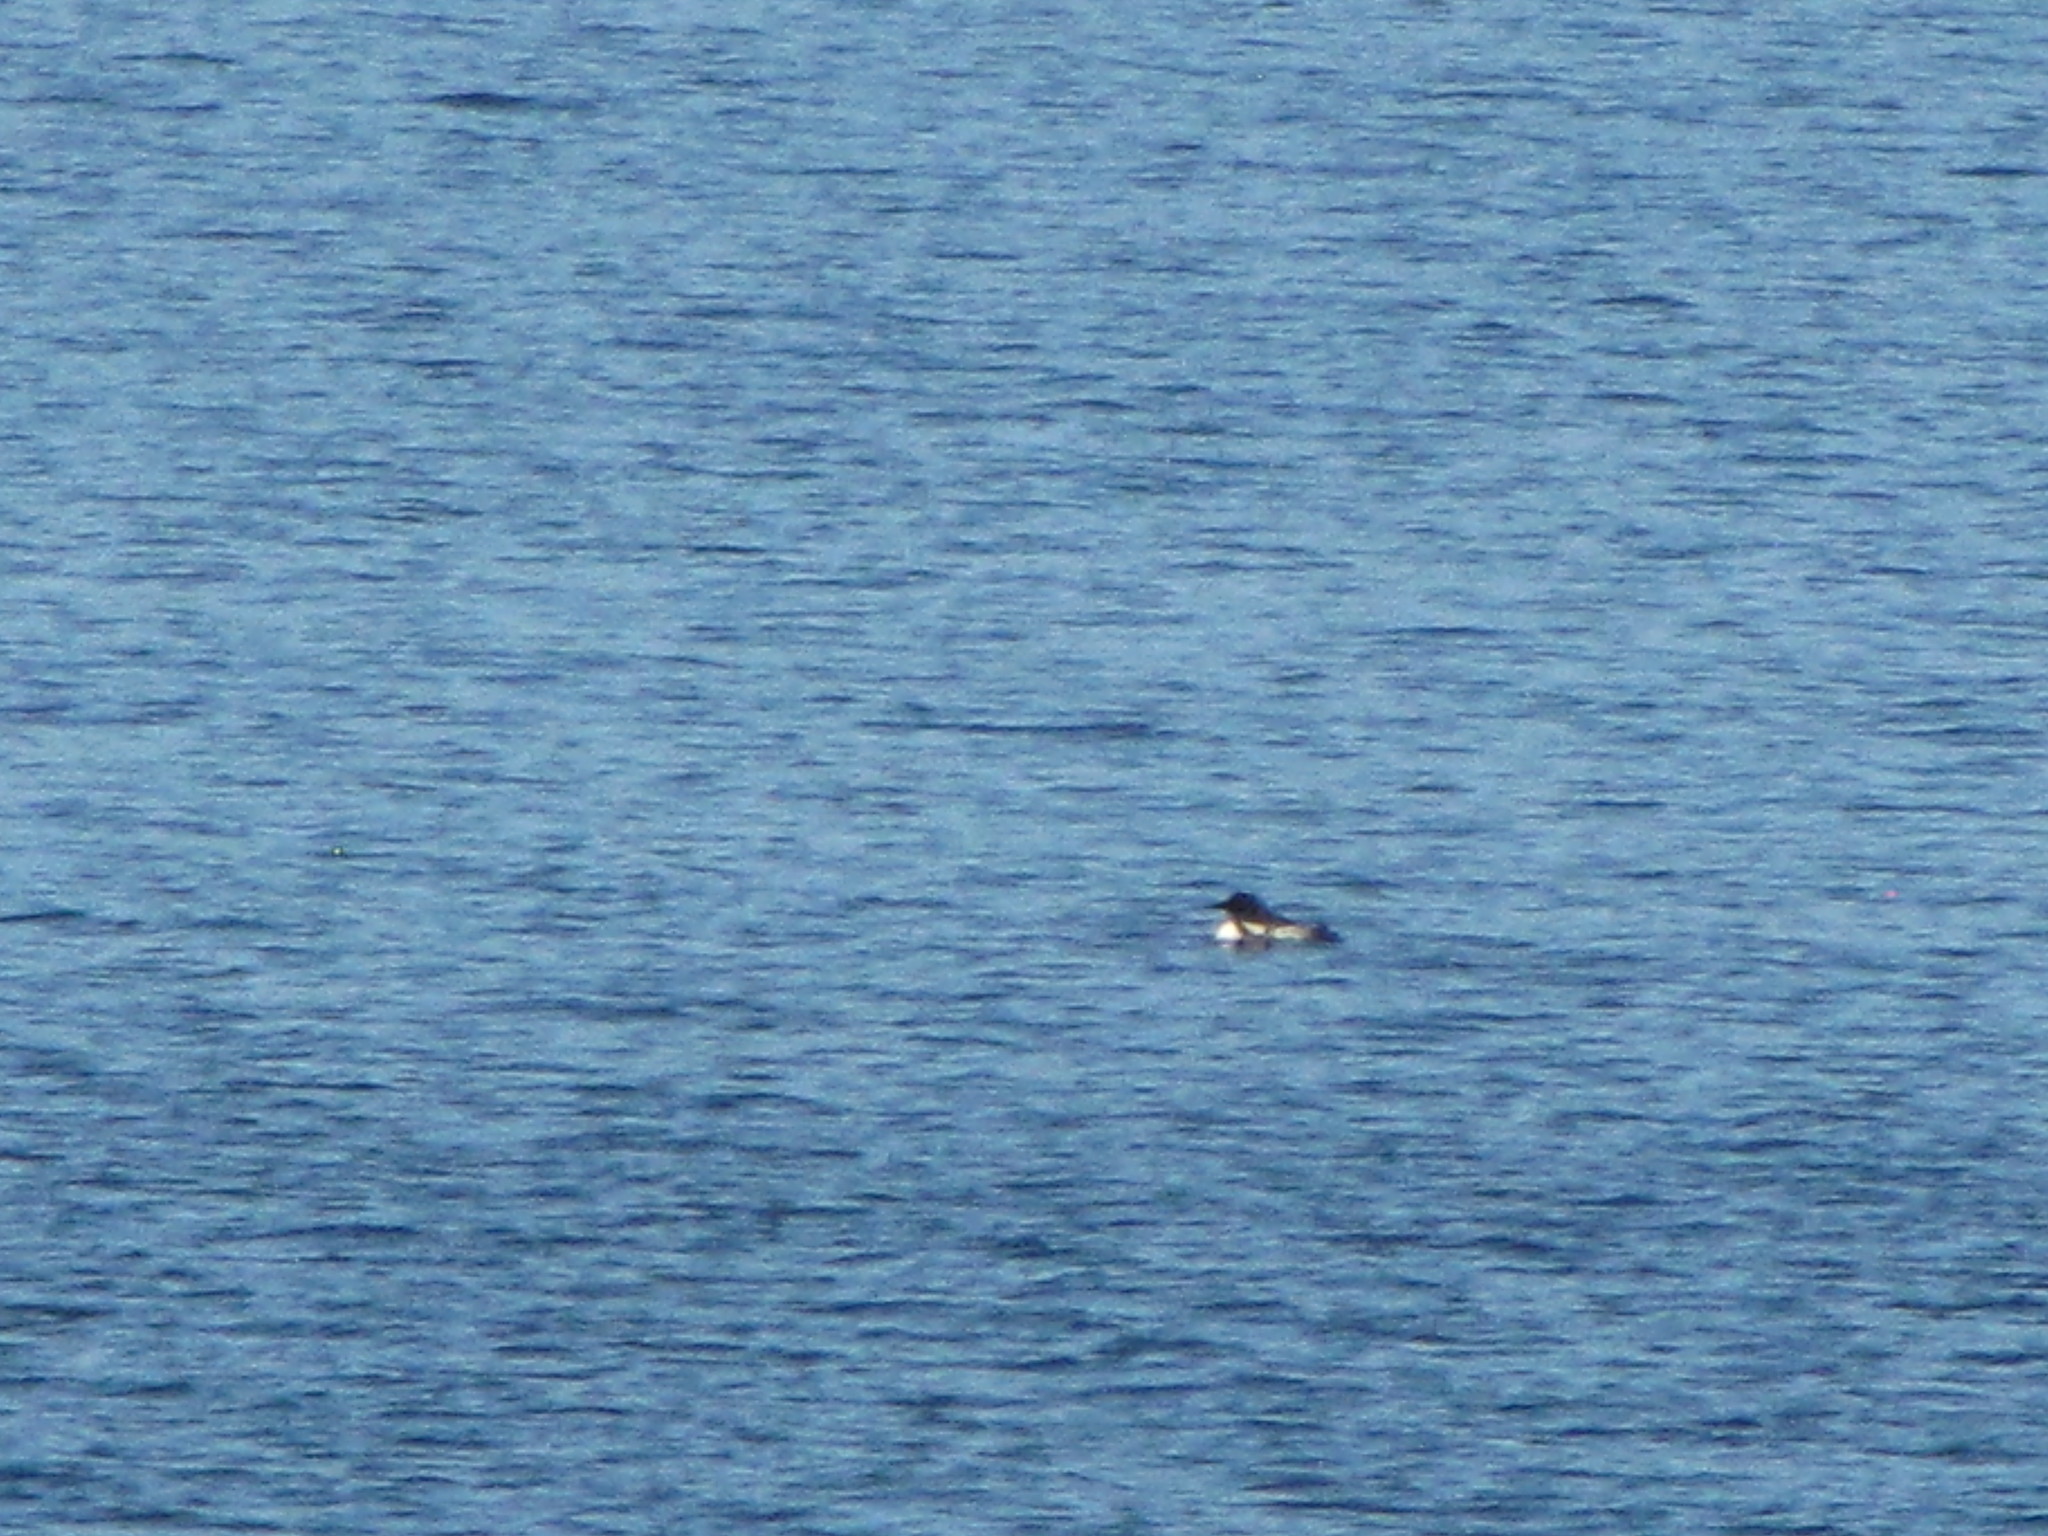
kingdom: Animalia
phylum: Chordata
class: Aves
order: Gaviiformes
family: Gaviidae
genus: Gavia
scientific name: Gavia immer
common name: Common loon
